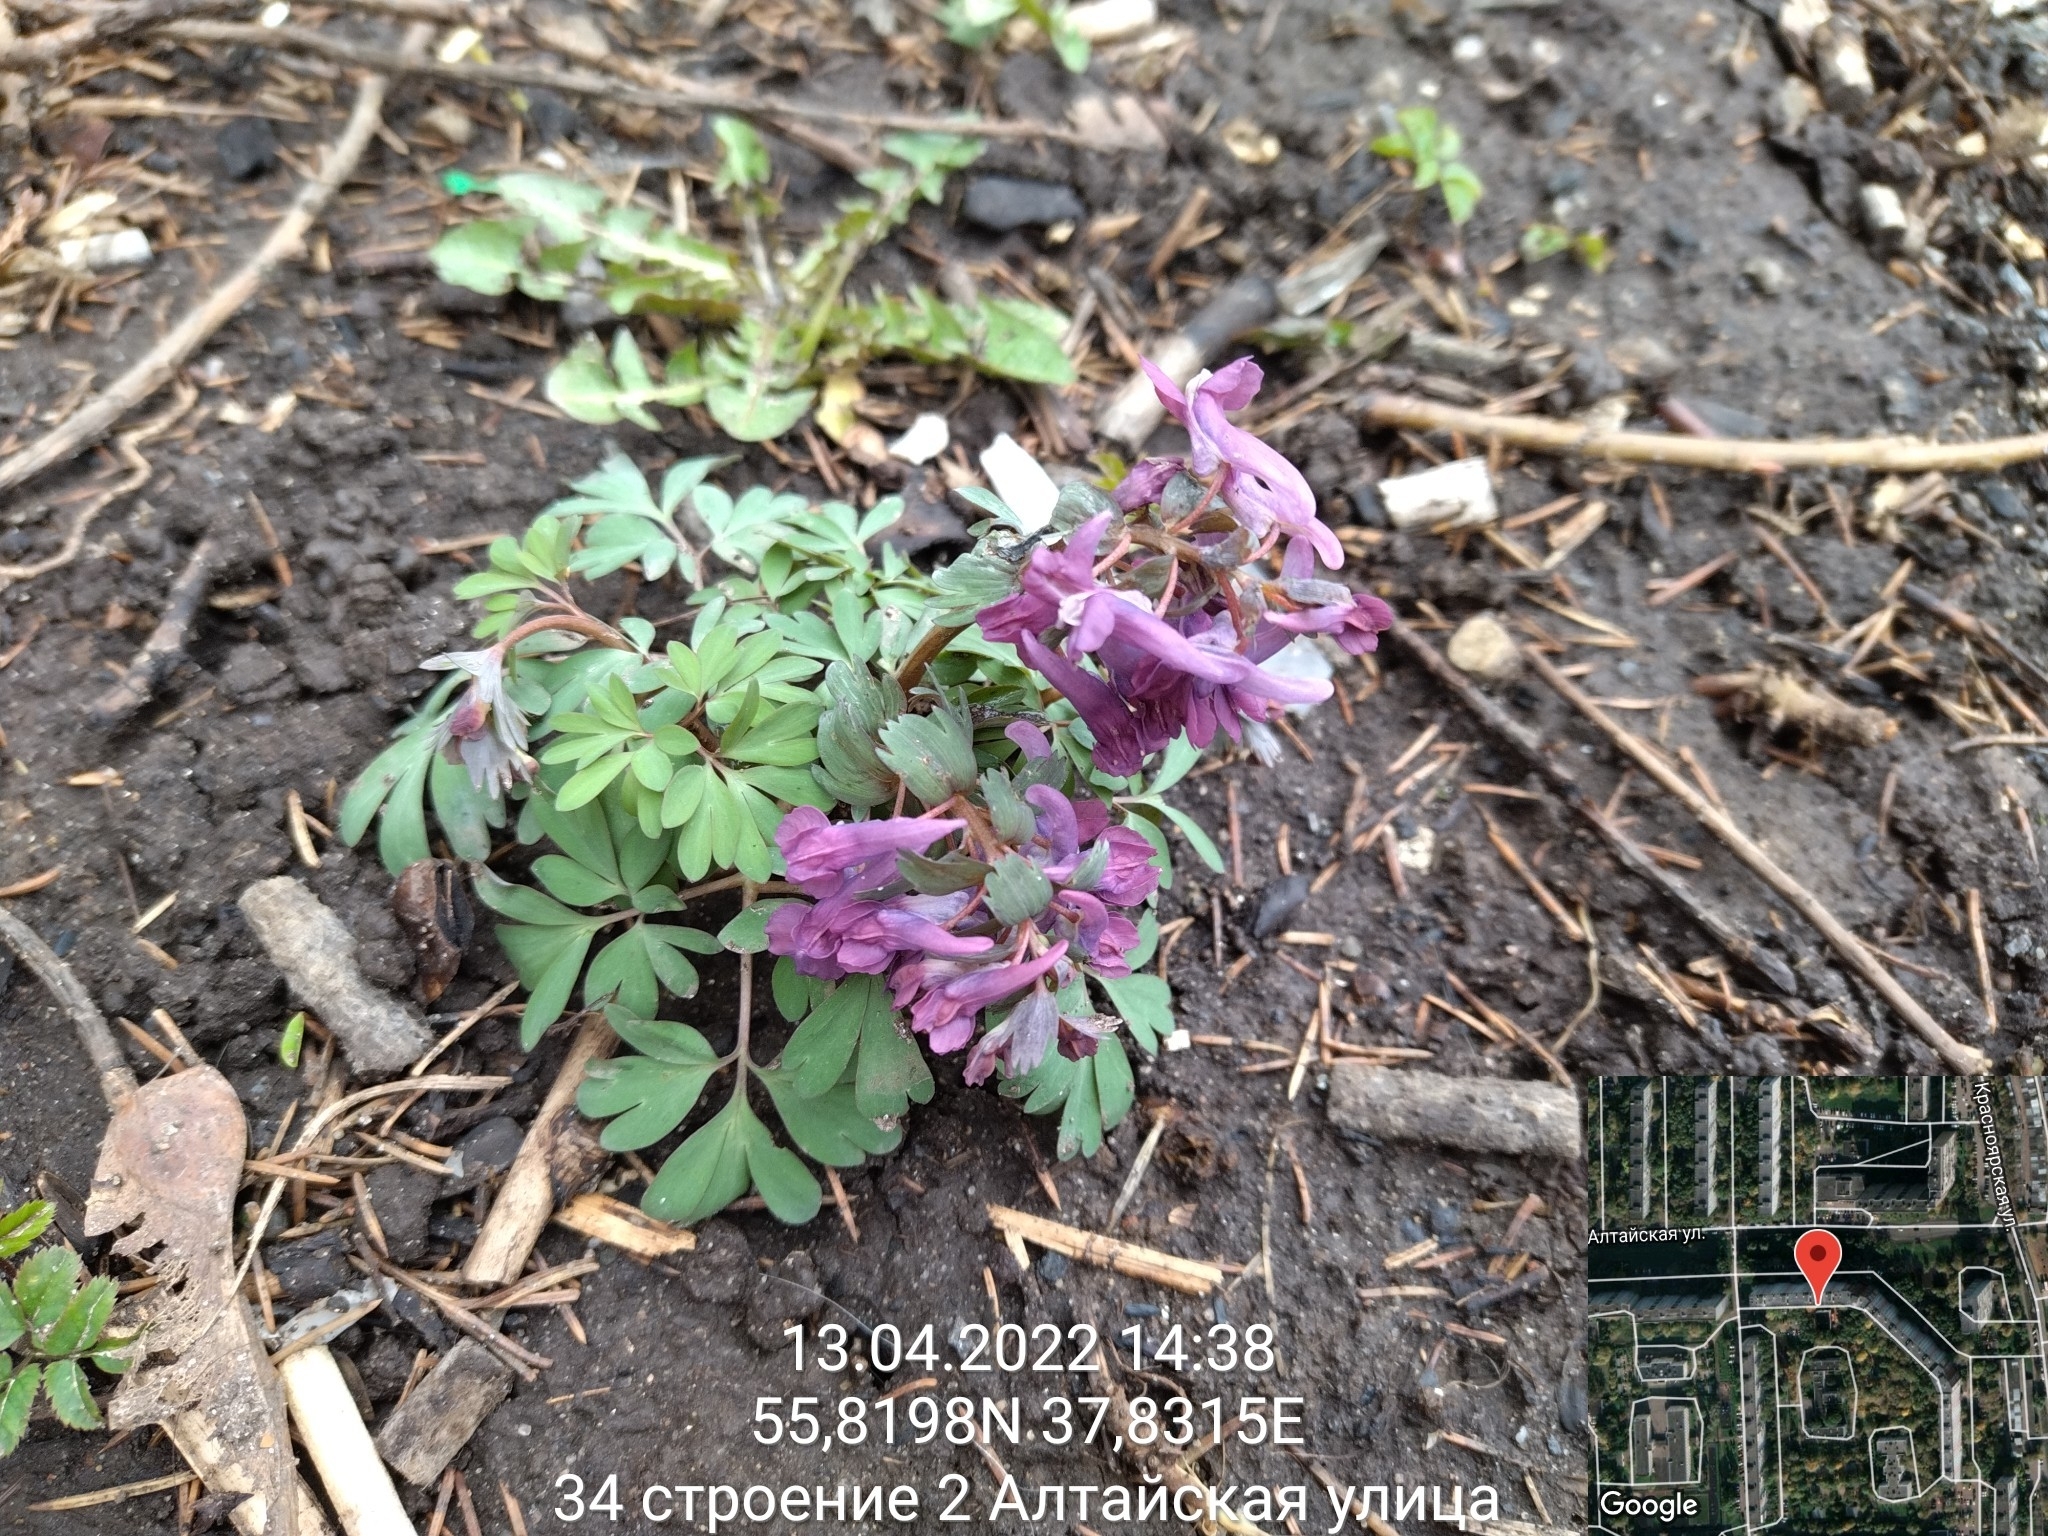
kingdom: Plantae
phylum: Tracheophyta
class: Magnoliopsida
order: Ranunculales
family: Papaveraceae
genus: Corydalis
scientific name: Corydalis solida
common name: Bird-in-a-bush
